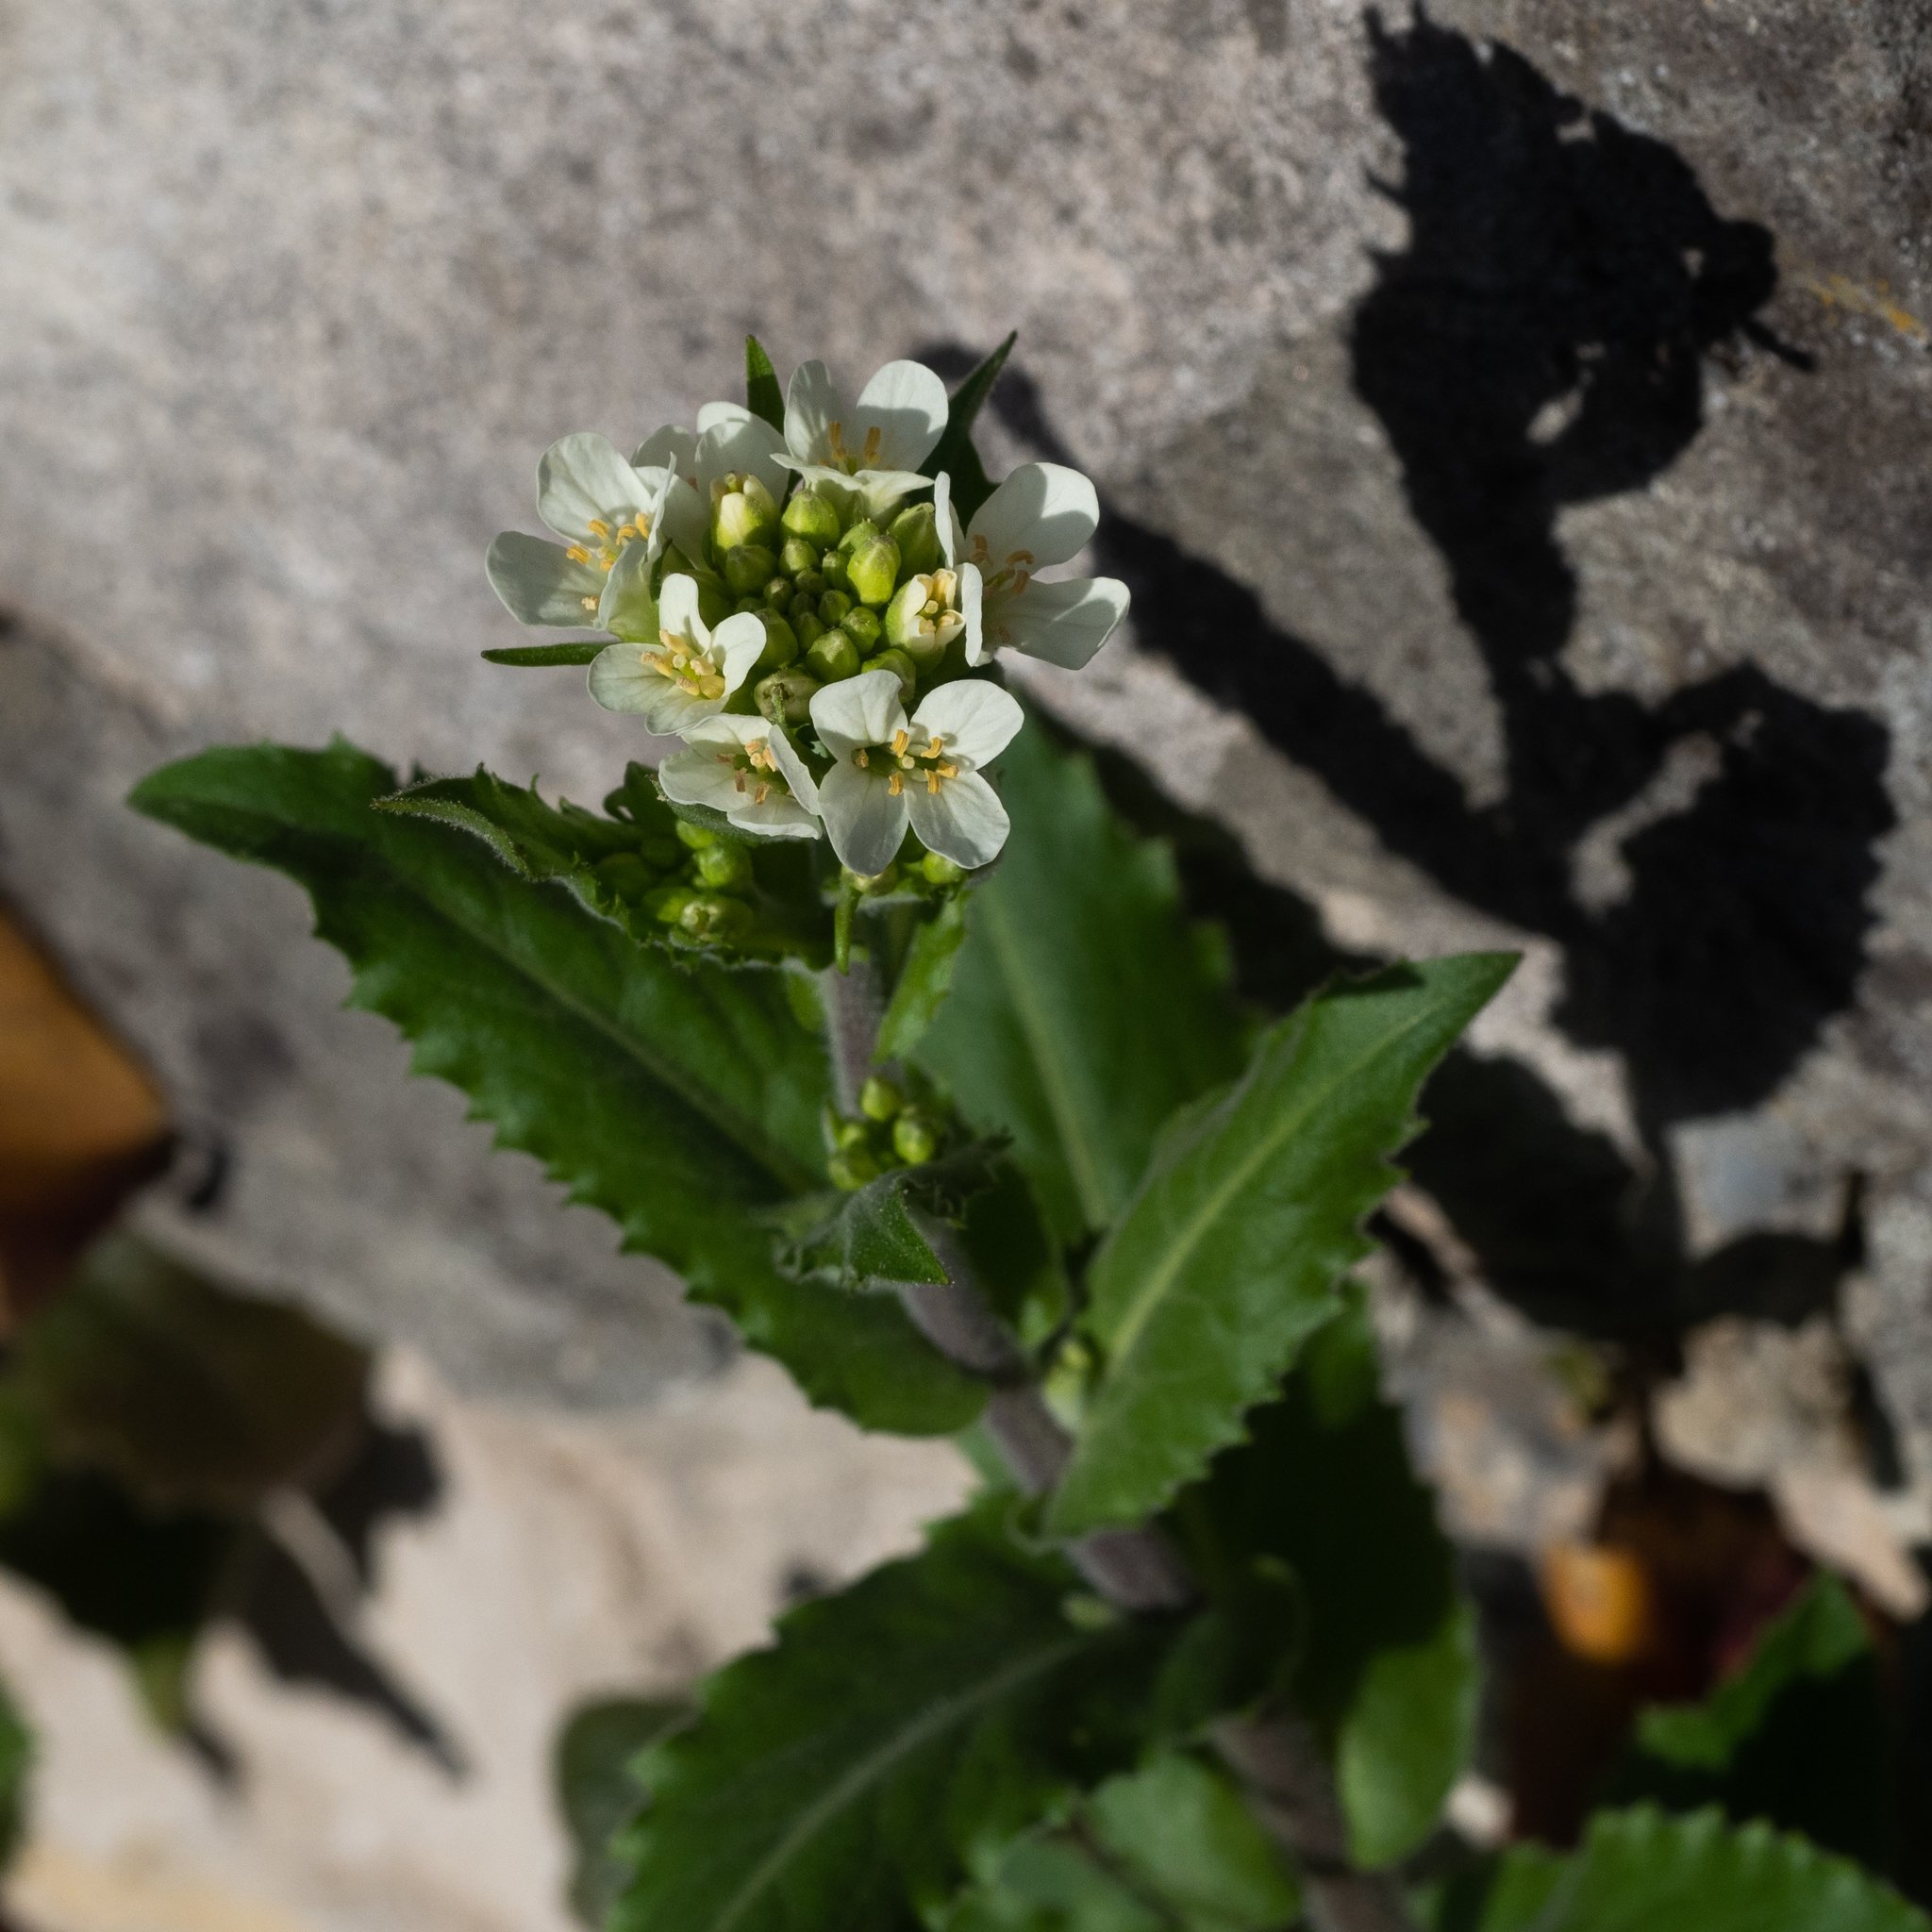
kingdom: Plantae
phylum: Tracheophyta
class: Magnoliopsida
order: Brassicales
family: Brassicaceae
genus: Pseudoturritis
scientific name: Pseudoturritis turrita
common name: Tower cress
